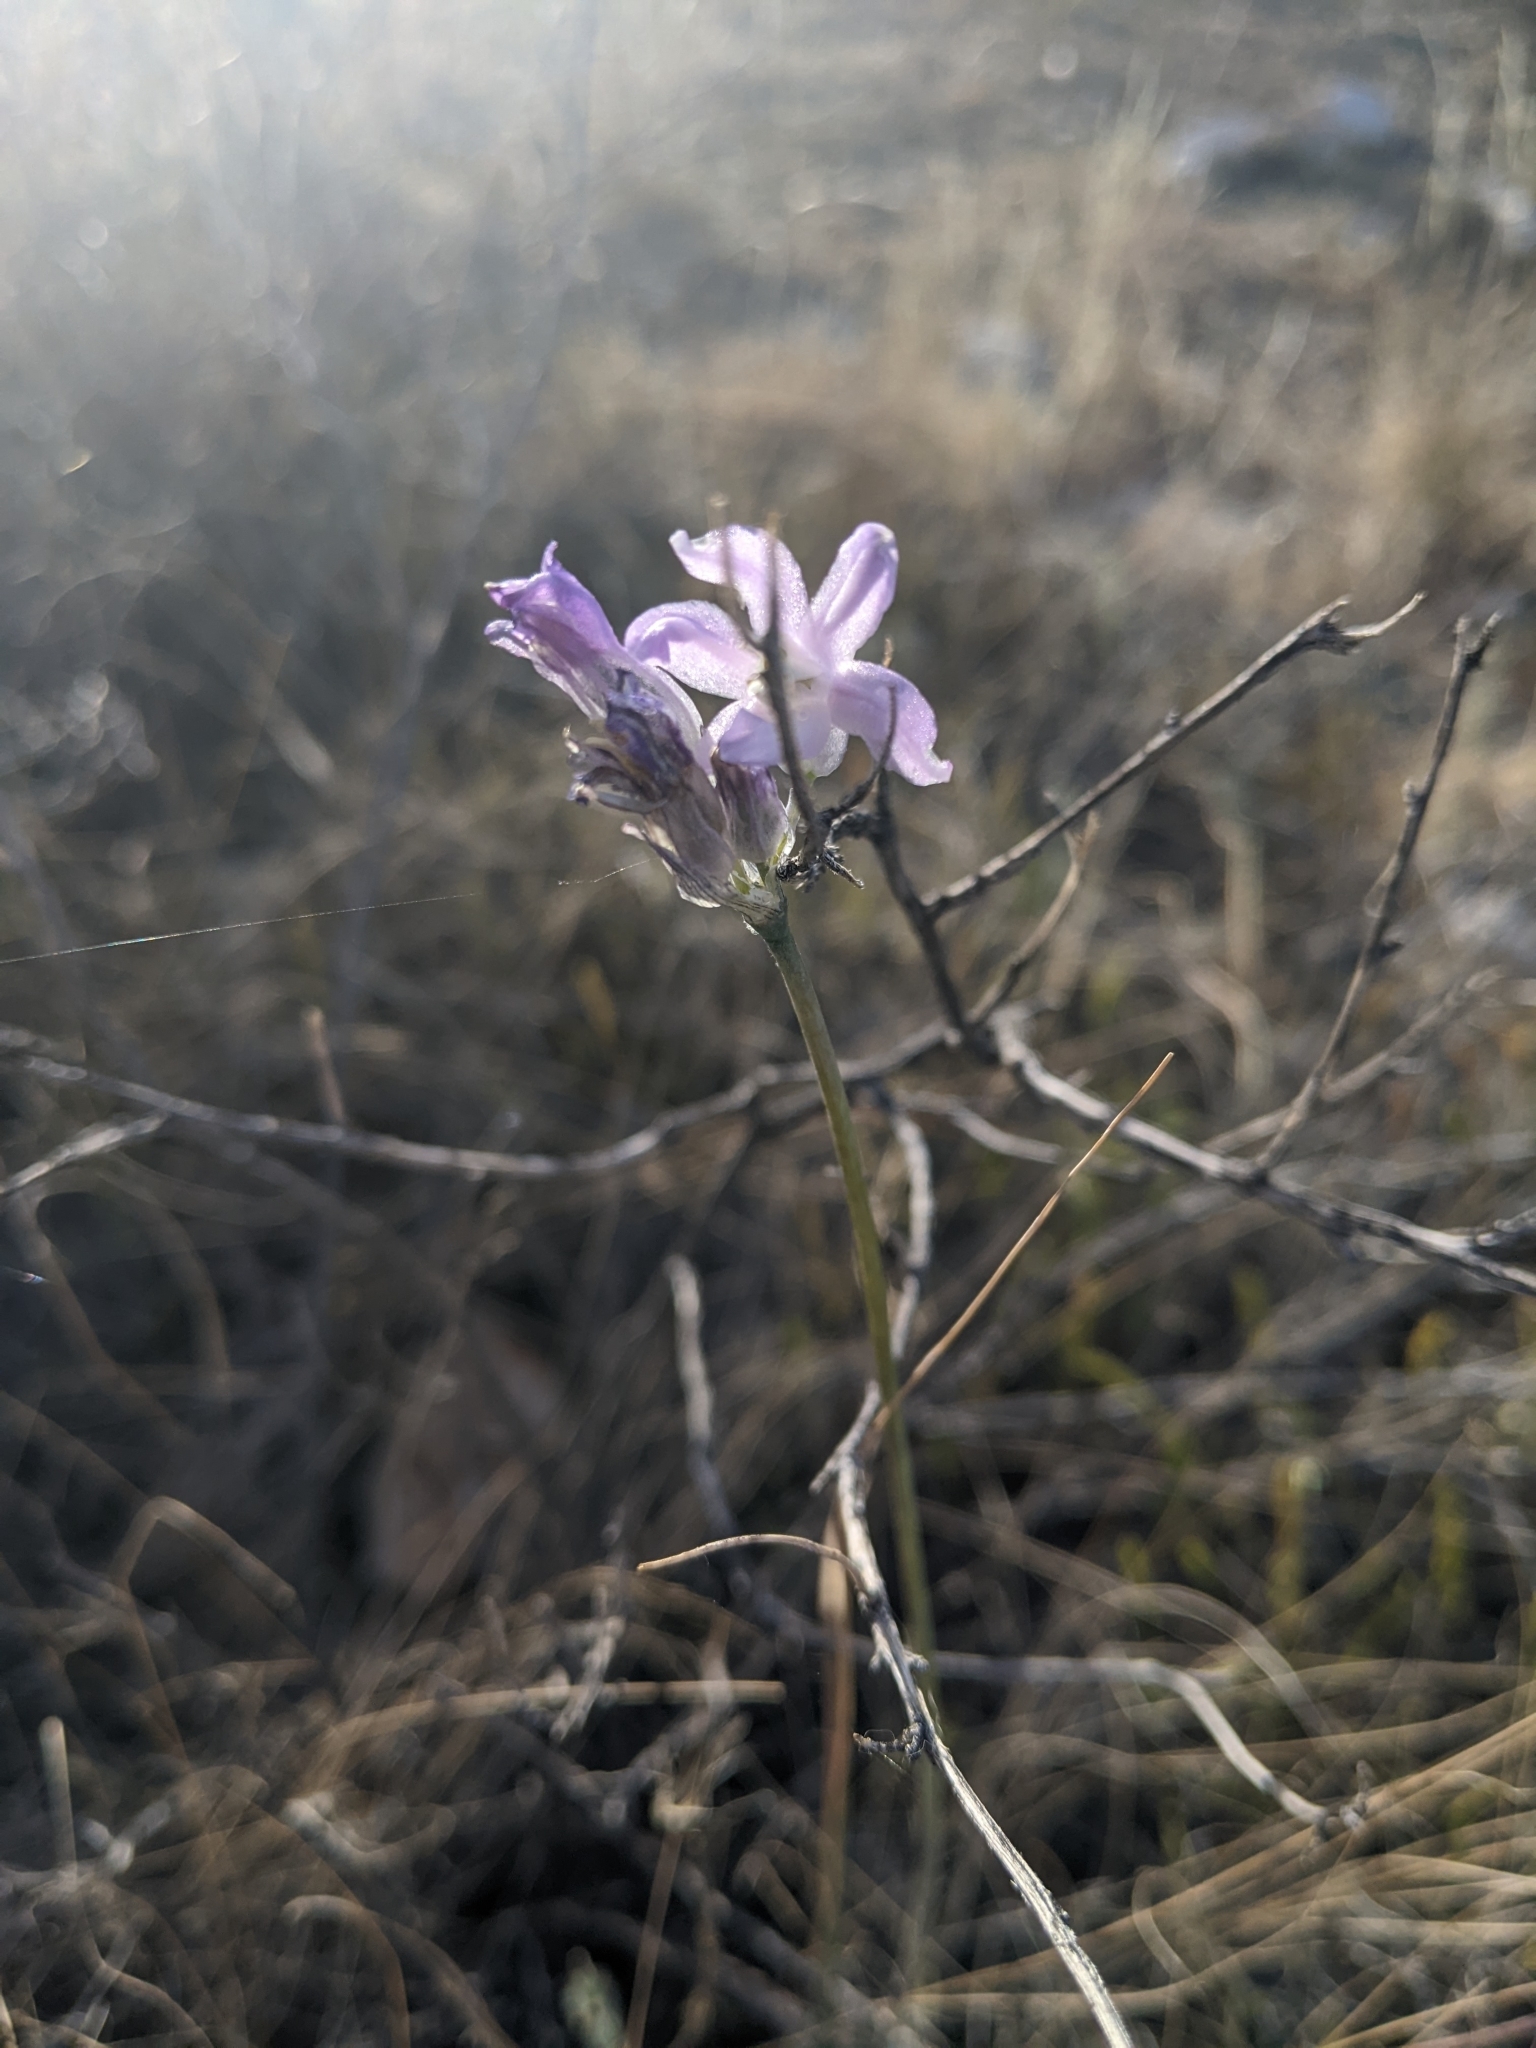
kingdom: Plantae
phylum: Tracheophyta
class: Liliopsida
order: Asparagales
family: Asparagaceae
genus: Dipterostemon
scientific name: Dipterostemon capitatus
